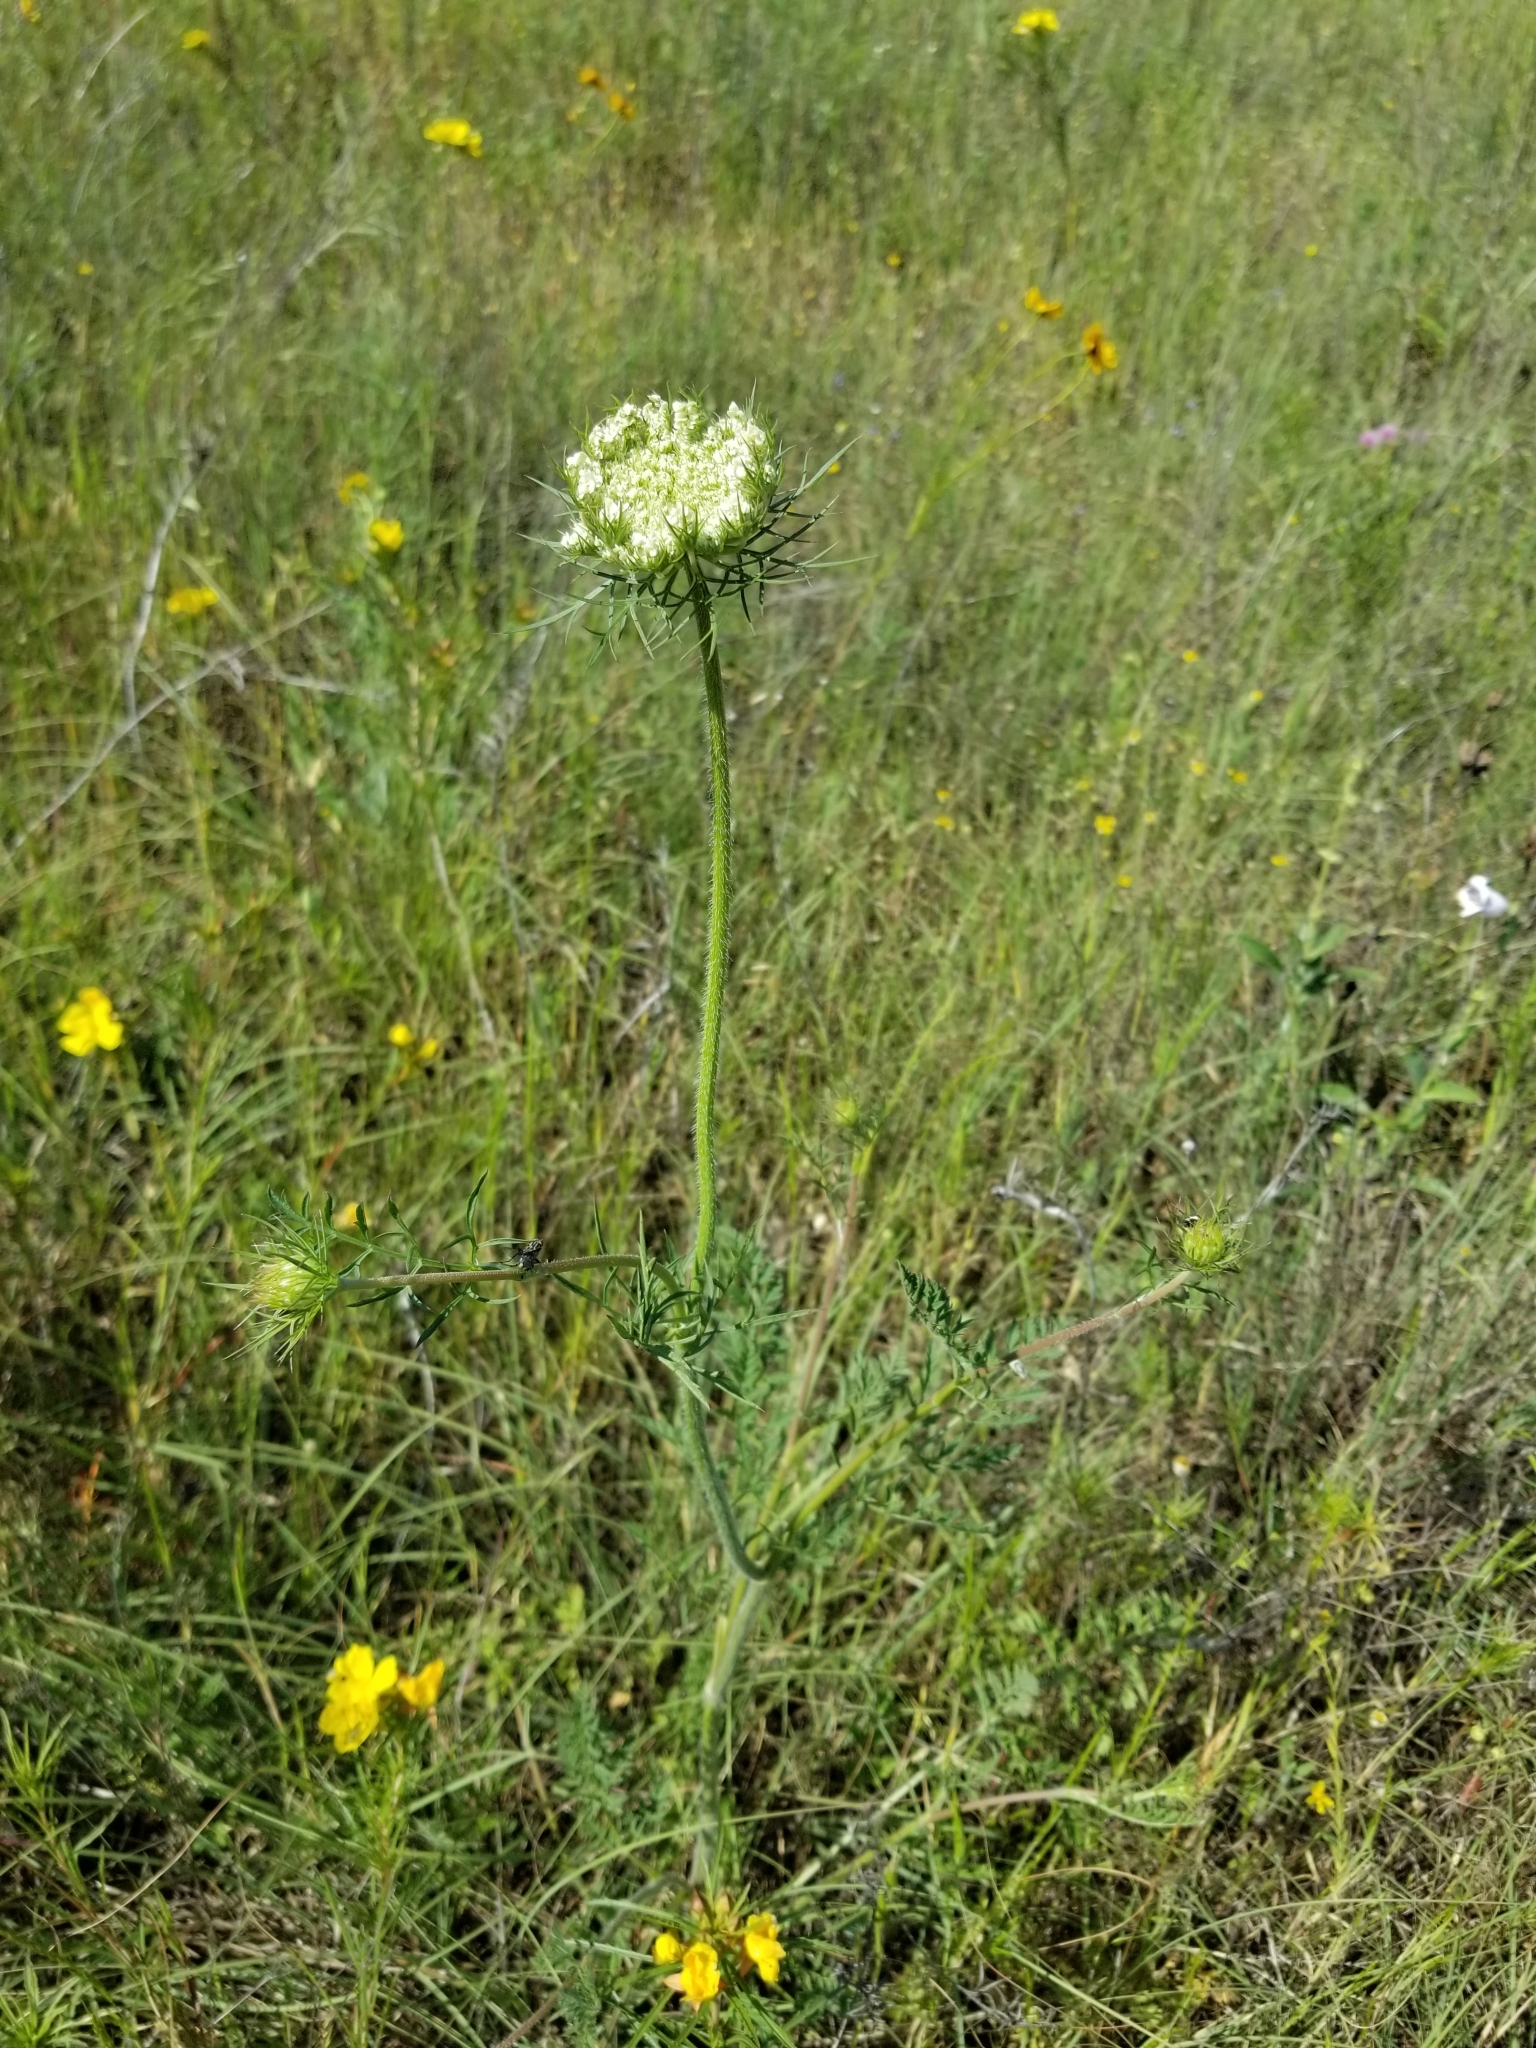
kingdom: Plantae
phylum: Tracheophyta
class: Magnoliopsida
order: Apiales
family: Apiaceae
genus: Daucus
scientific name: Daucus carota
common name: Wild carrot
